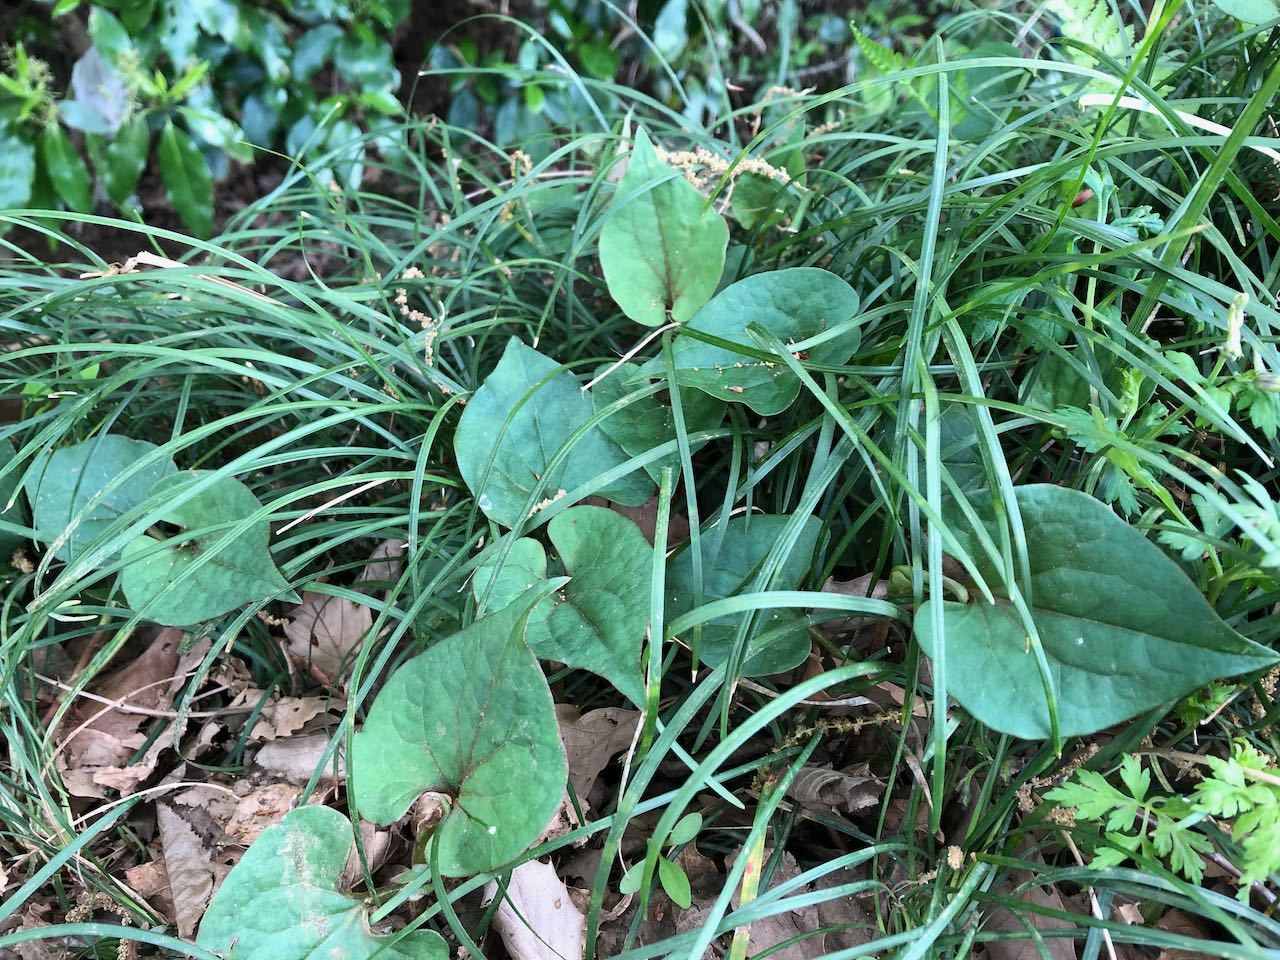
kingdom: Plantae
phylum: Tracheophyta
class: Magnoliopsida
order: Piperales
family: Saururaceae
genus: Houttuynia
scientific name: Houttuynia cordata
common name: Chameleon
